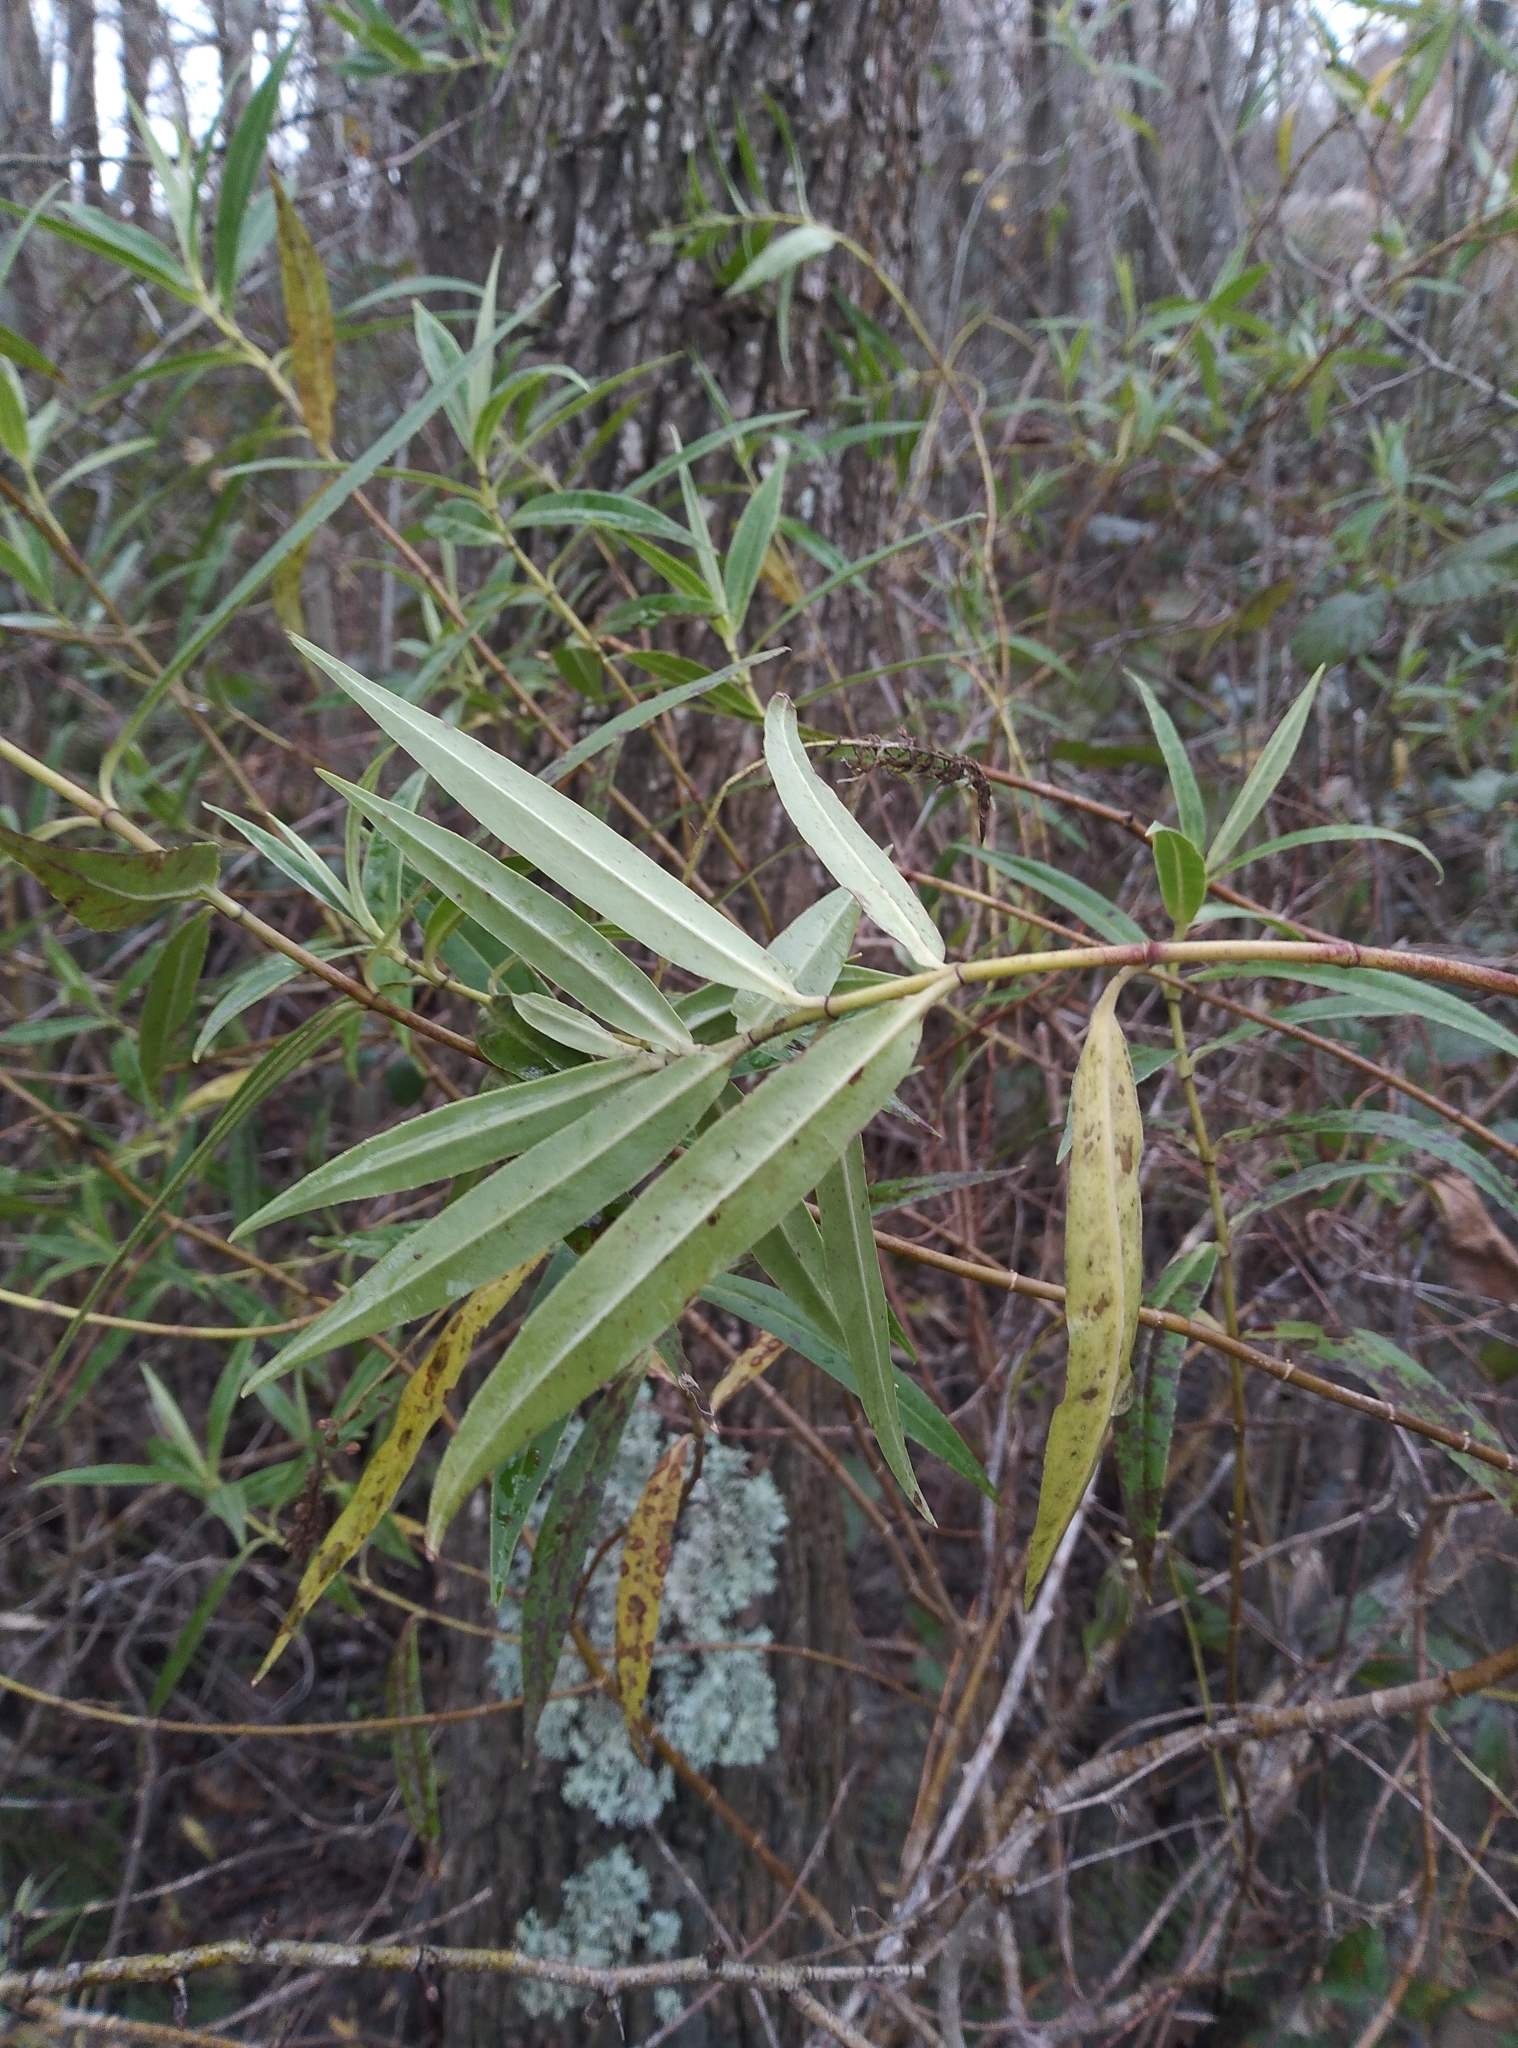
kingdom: Plantae
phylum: Tracheophyta
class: Magnoliopsida
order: Lamiales
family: Plantaginaceae
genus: Veronica
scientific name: Veronica salicifolia
